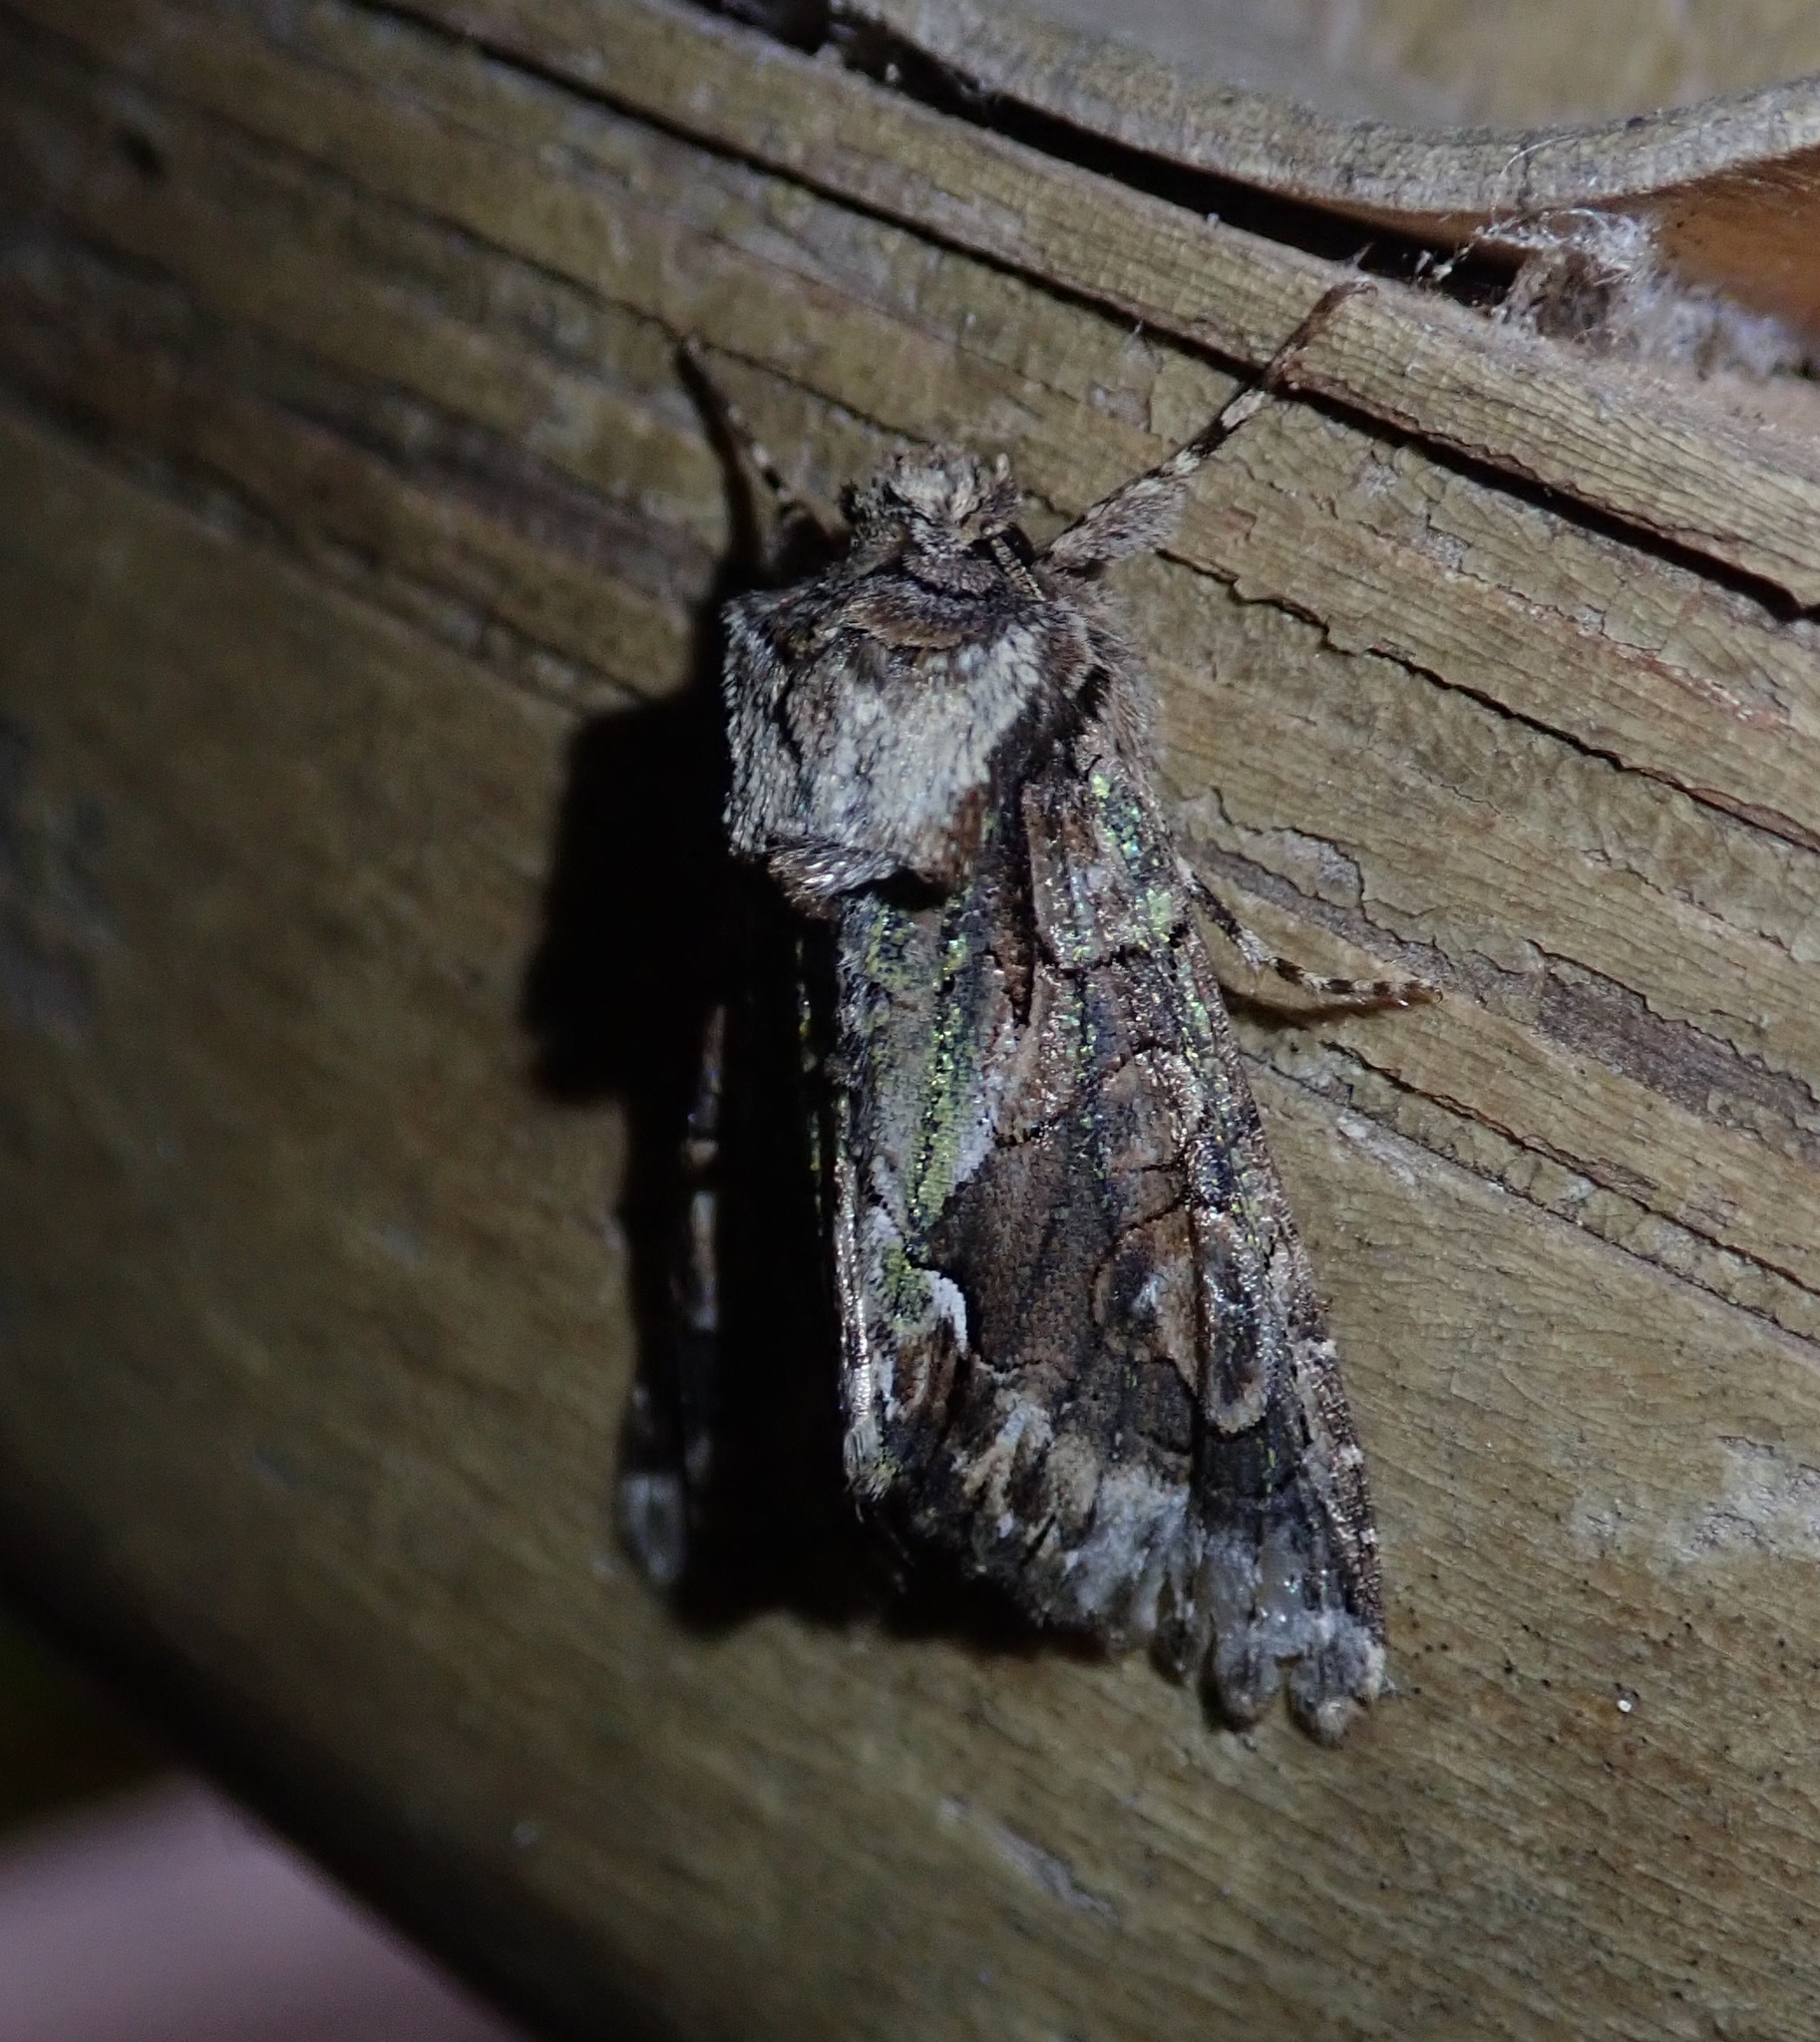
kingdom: Animalia
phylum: Arthropoda
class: Insecta
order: Lepidoptera
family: Noctuidae
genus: Allophyes
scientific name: Allophyes oxyacanthae
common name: Green-brindled crescent
